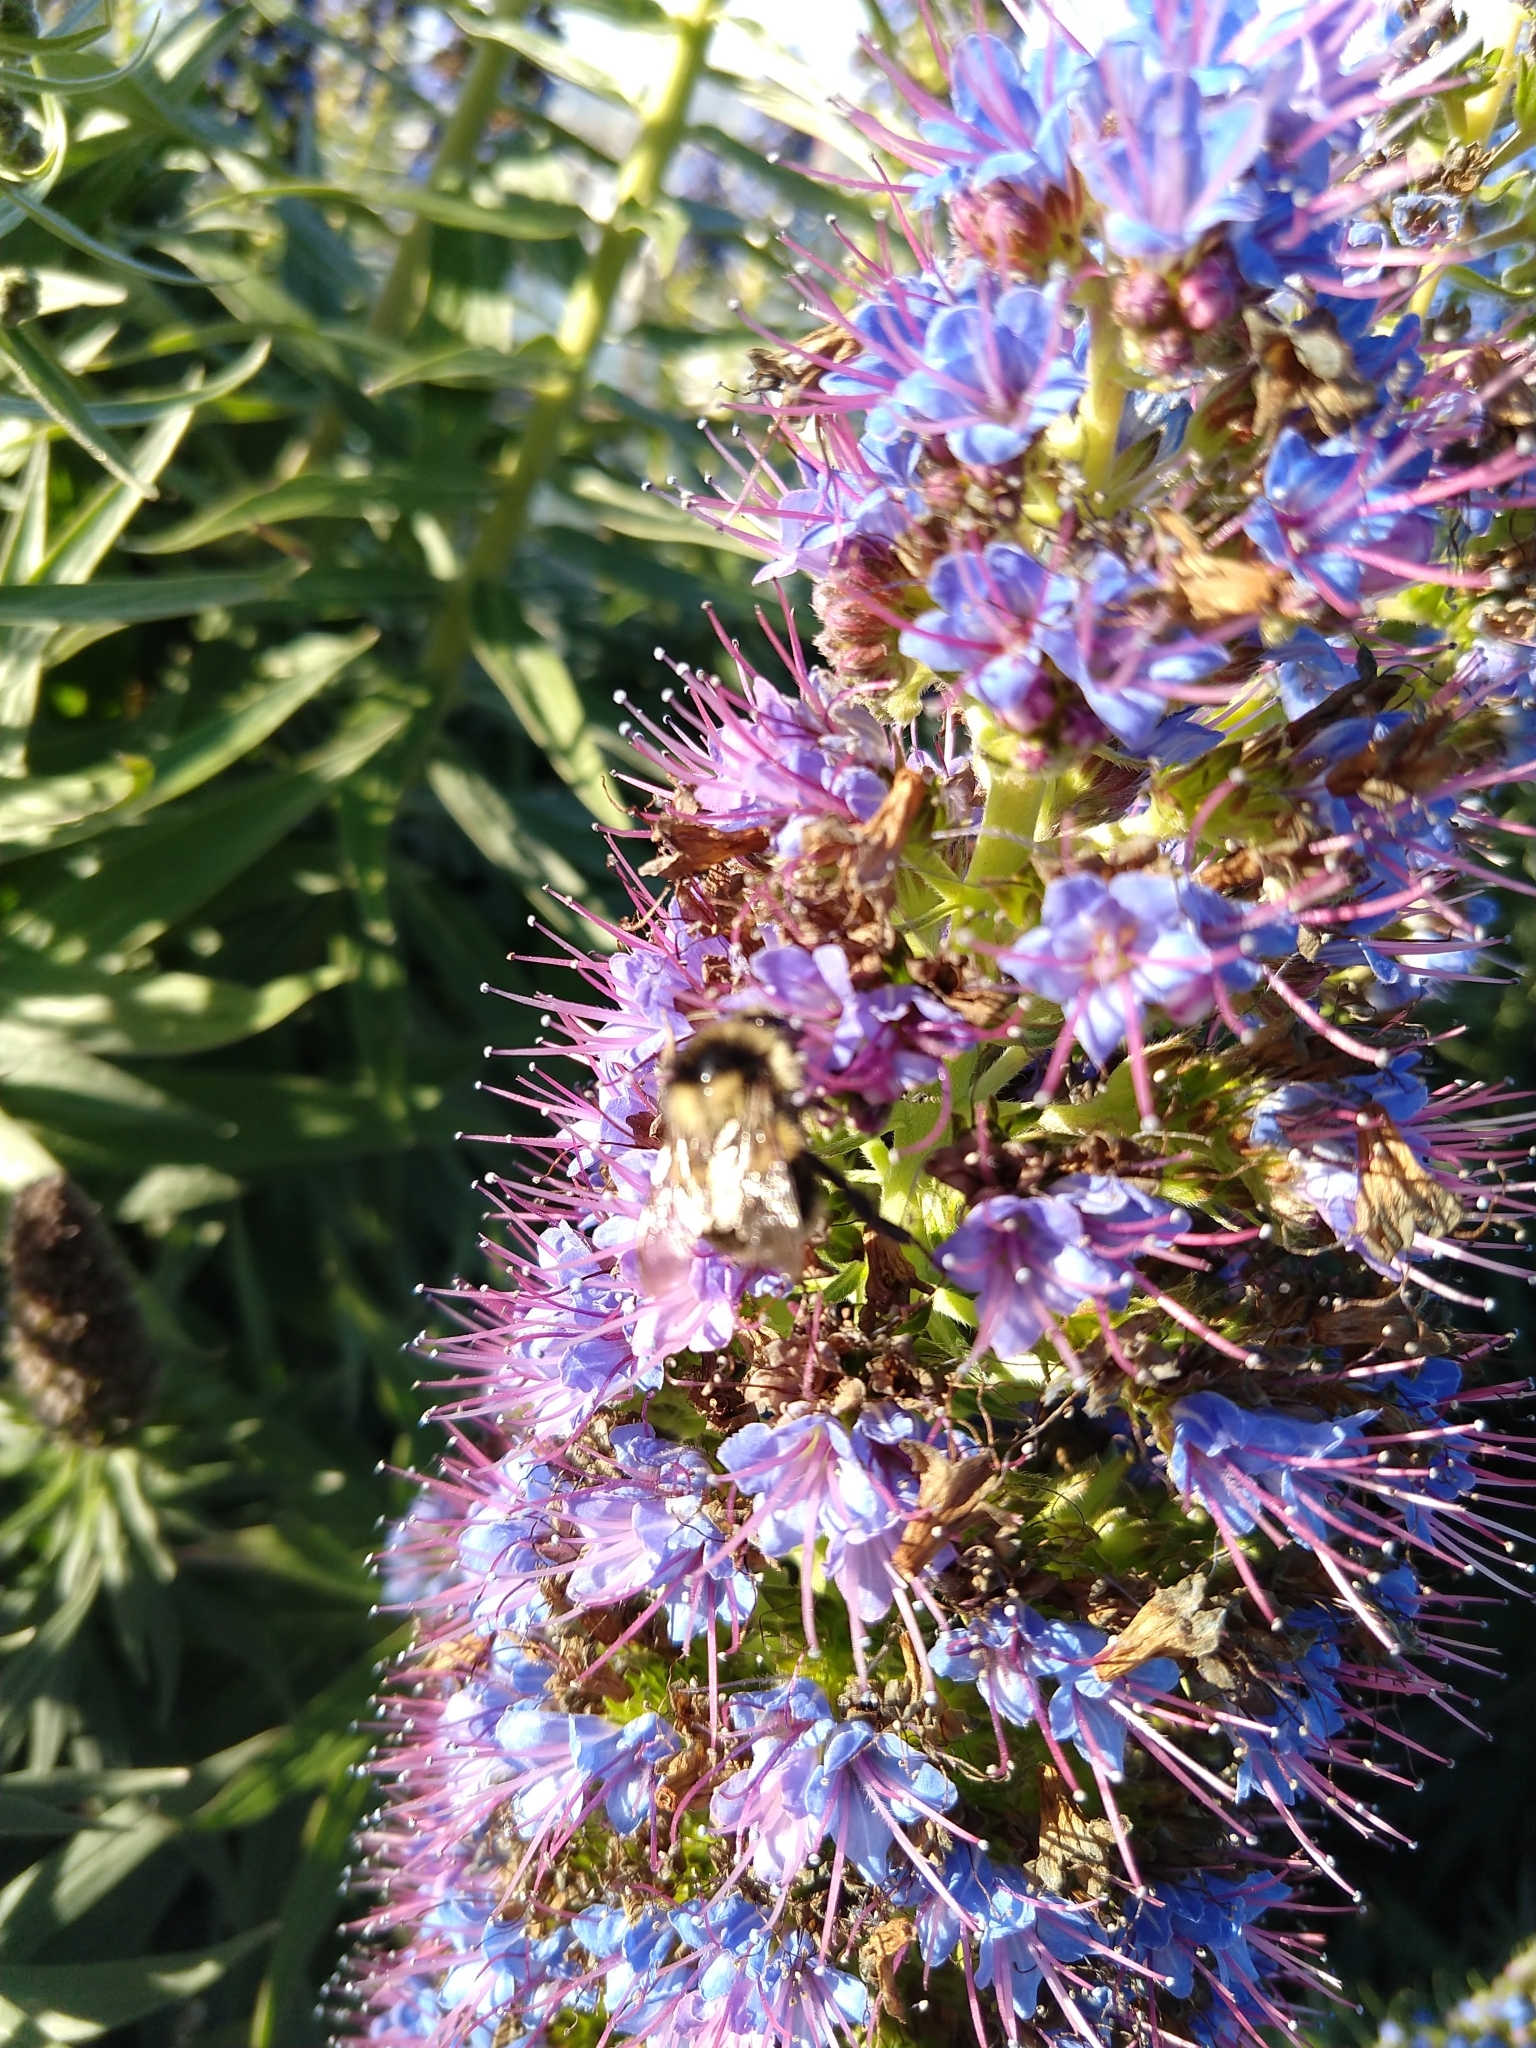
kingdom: Animalia
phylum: Arthropoda
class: Insecta
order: Hymenoptera
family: Apidae
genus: Bombus
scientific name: Bombus melanopygus
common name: Black tail bumble bee
